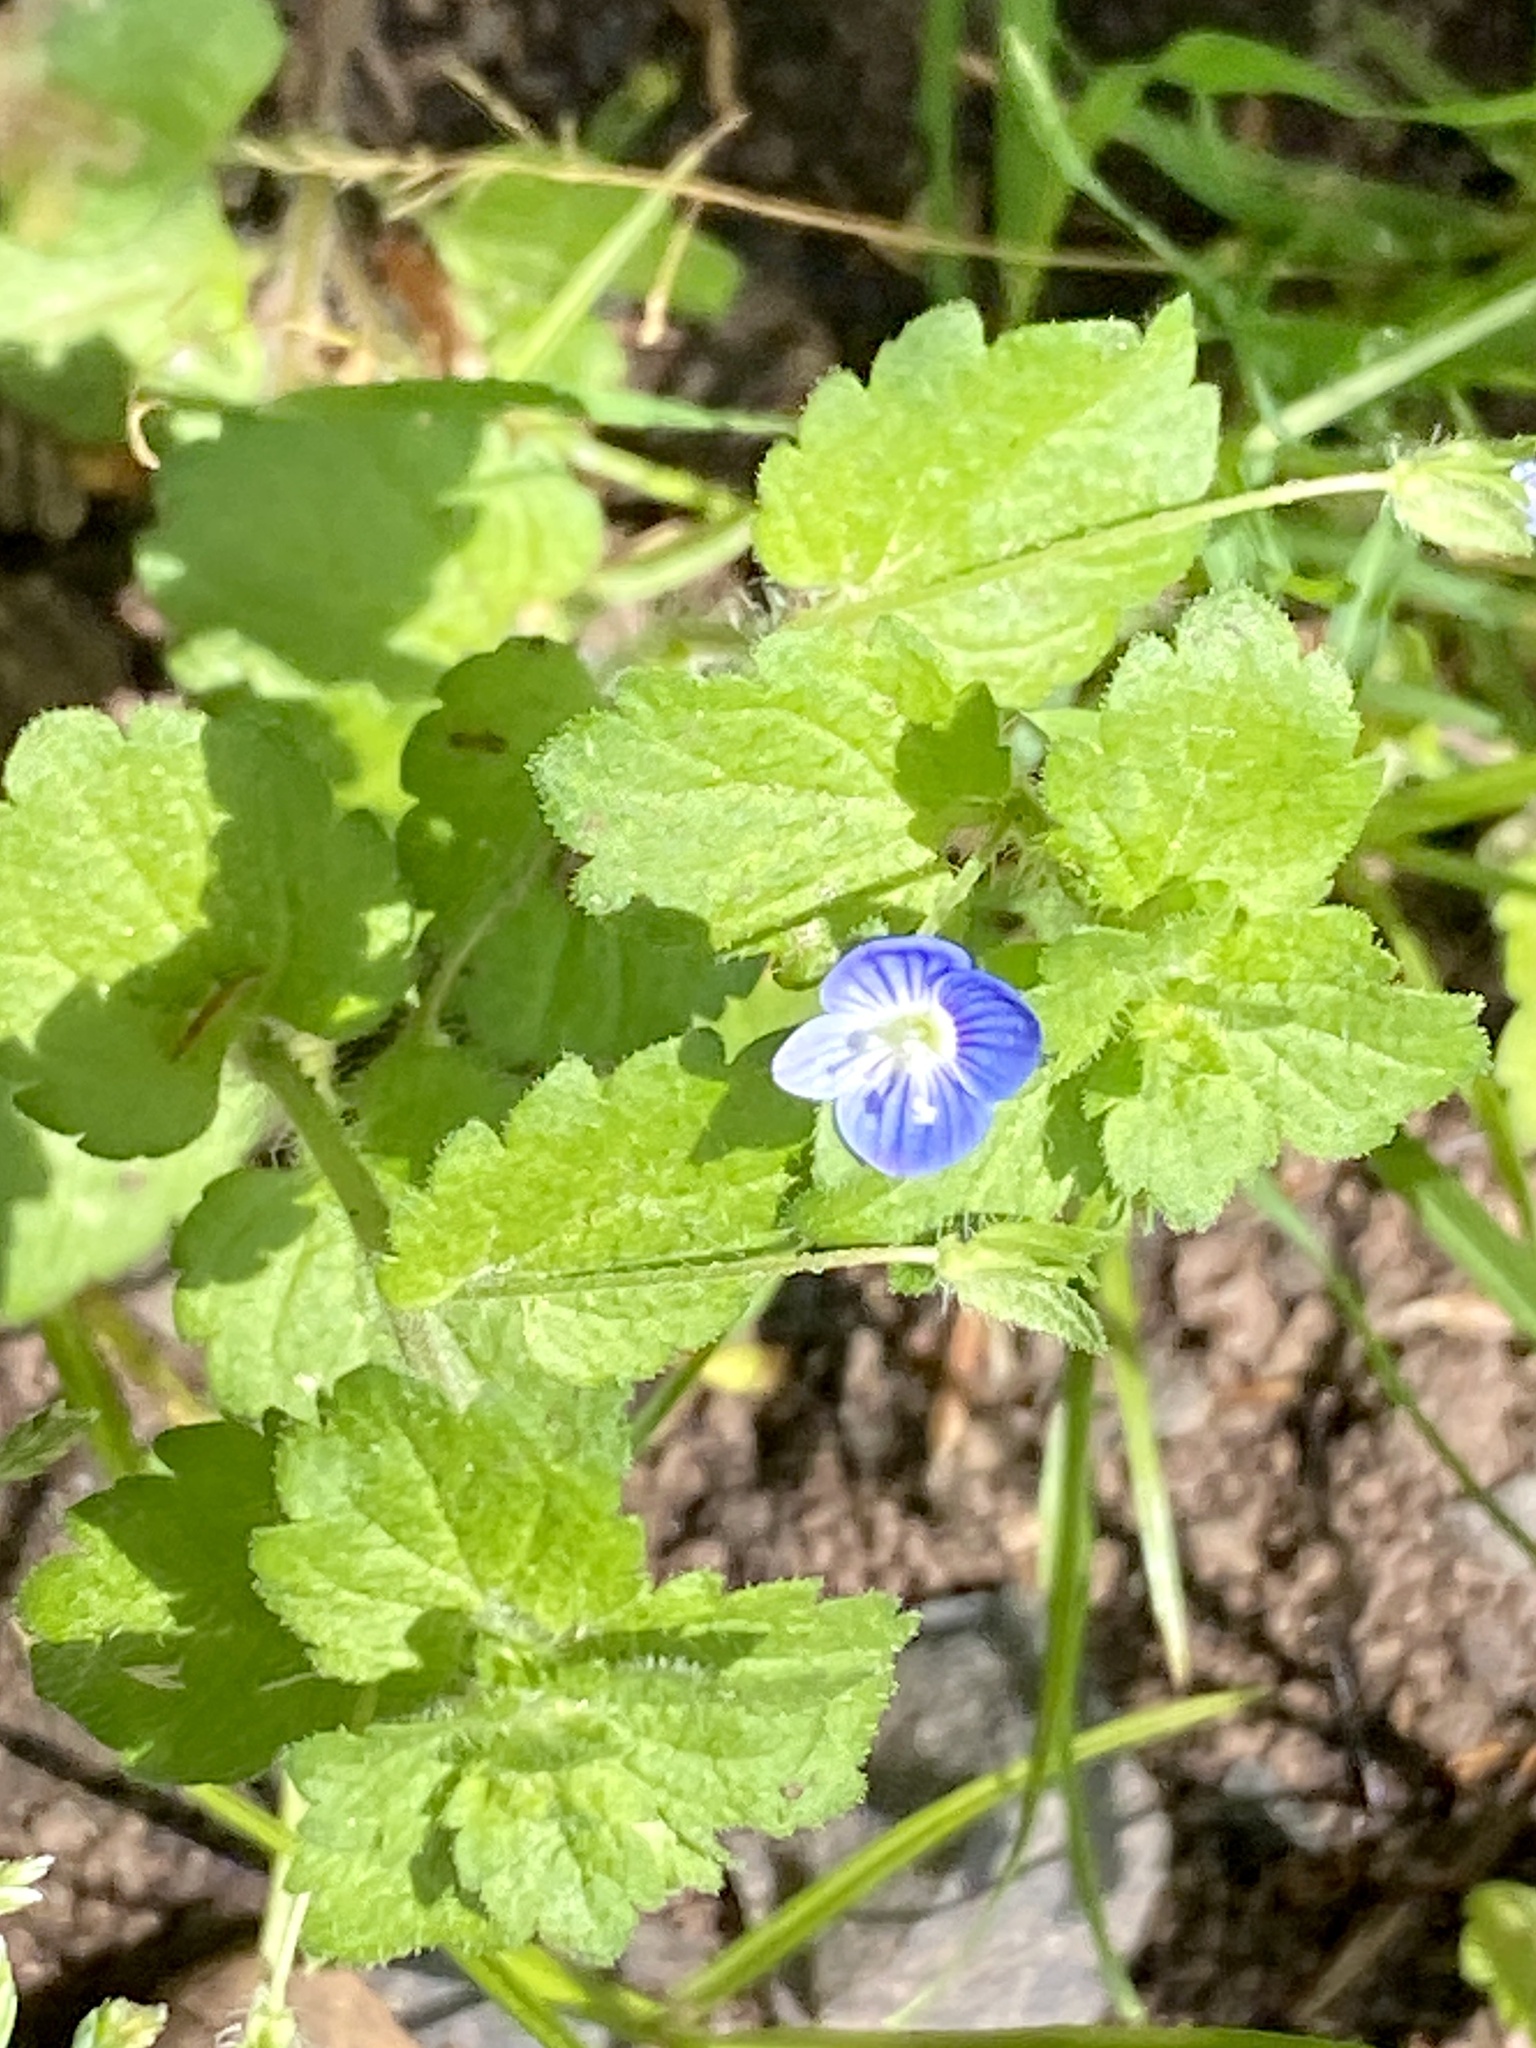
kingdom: Plantae
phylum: Tracheophyta
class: Magnoliopsida
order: Lamiales
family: Plantaginaceae
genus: Veronica
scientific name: Veronica persica
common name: Common field-speedwell
